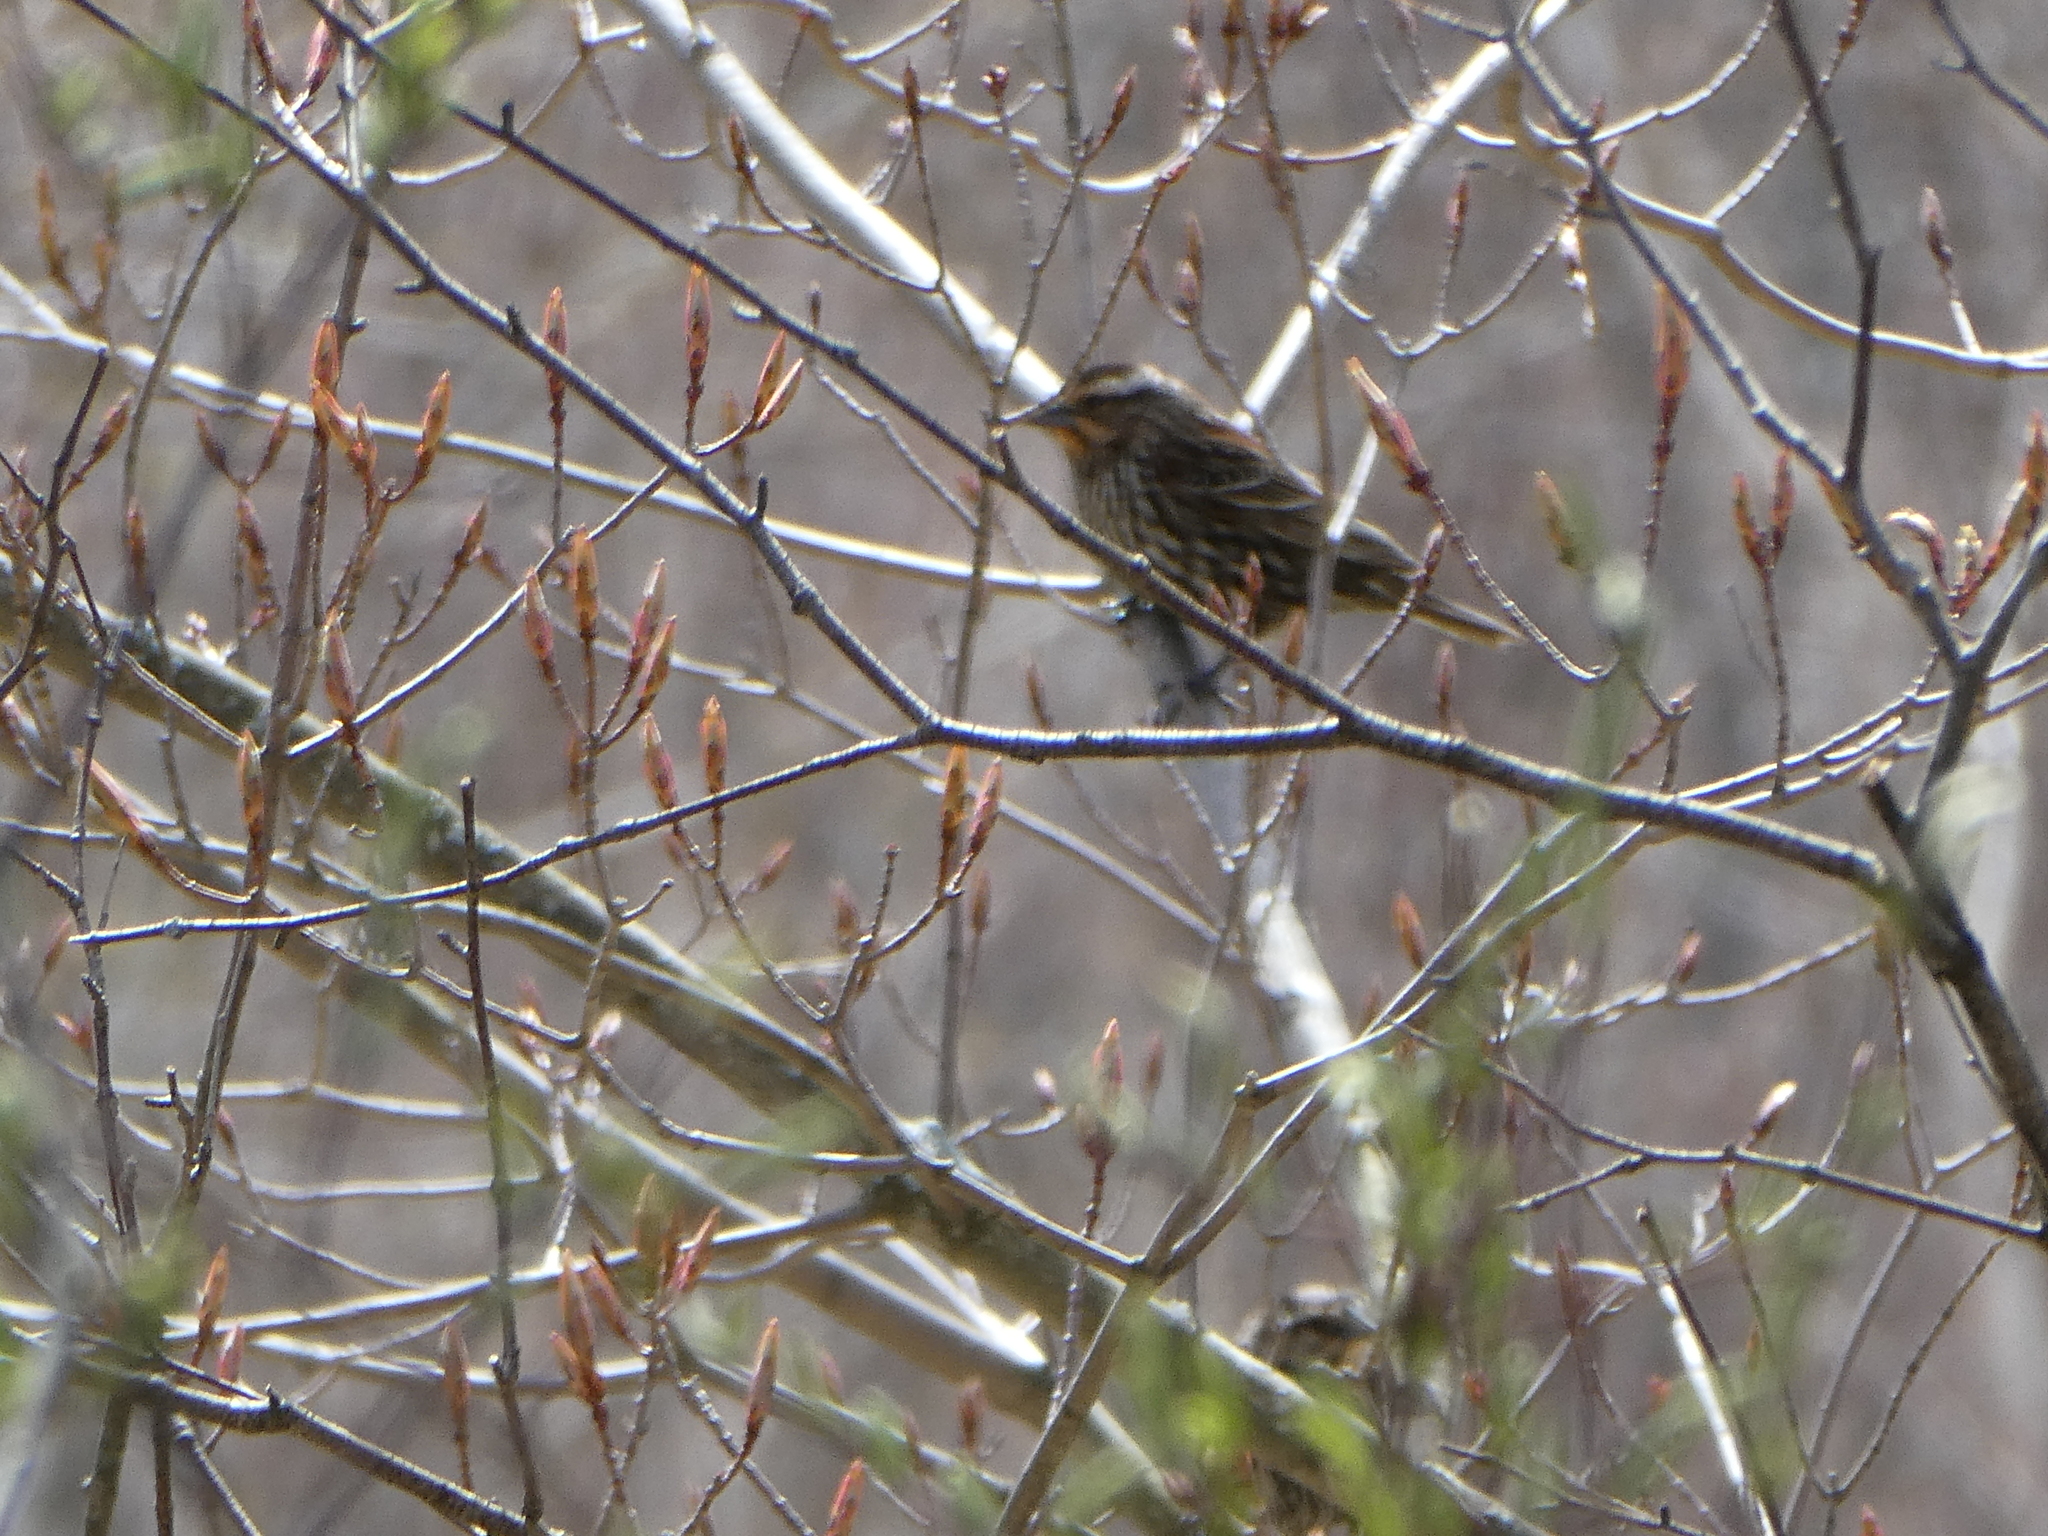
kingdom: Animalia
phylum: Chordata
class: Aves
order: Passeriformes
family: Icteridae
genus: Agelaius
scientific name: Agelaius phoeniceus
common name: Red-winged blackbird
